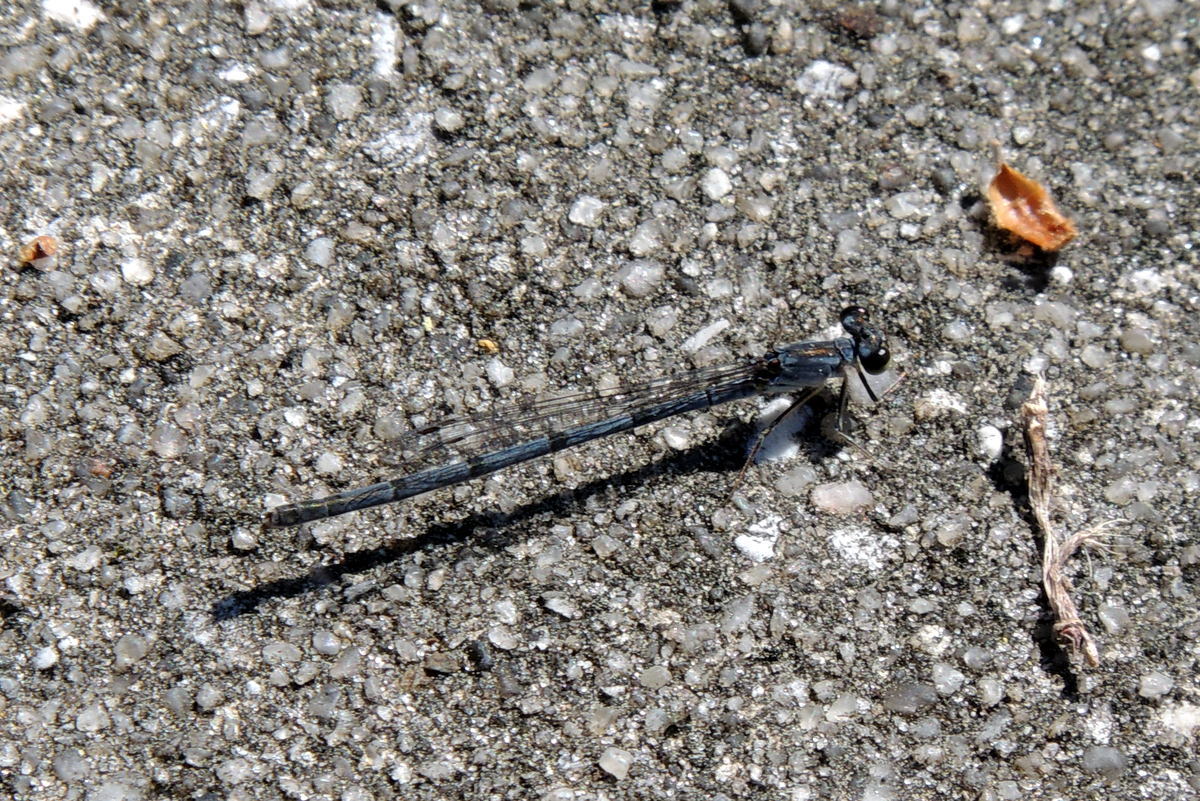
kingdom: Animalia
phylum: Arthropoda
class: Insecta
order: Odonata
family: Coenagrionidae
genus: Ischnura
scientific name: Ischnura posita
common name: Fragile forktail
